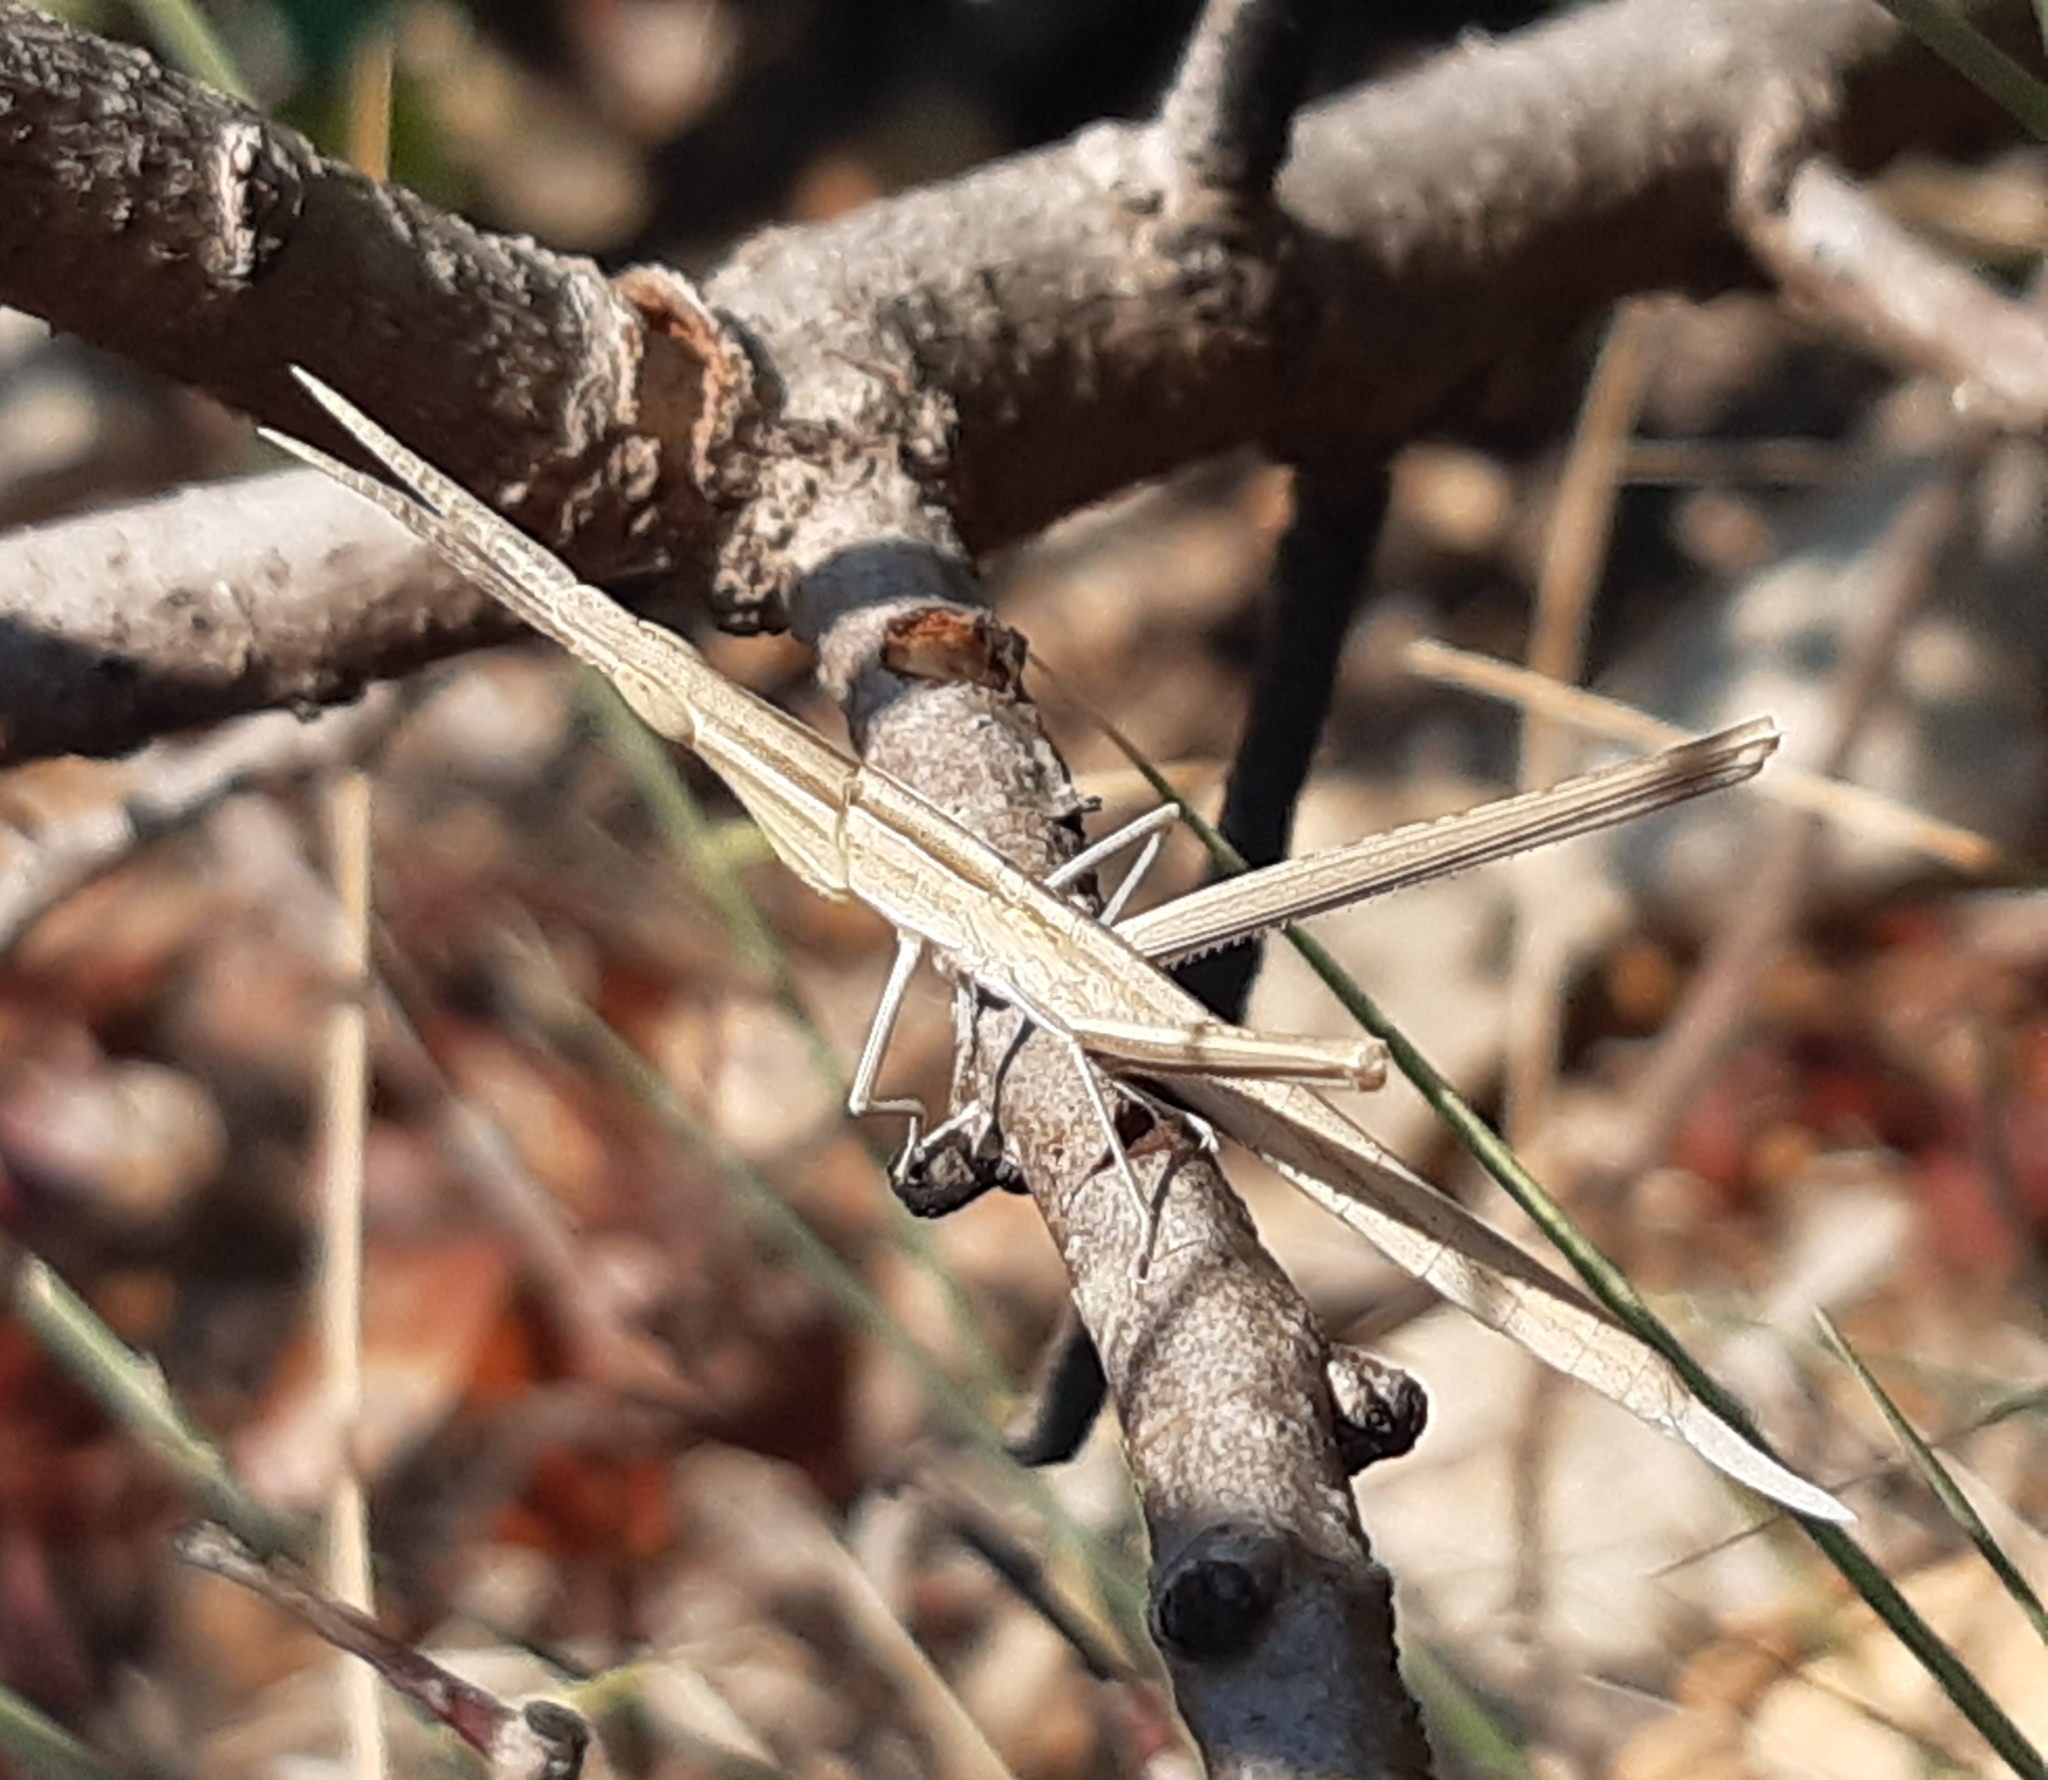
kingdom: Animalia
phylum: Arthropoda
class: Insecta
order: Orthoptera
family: Acrididae
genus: Acrida
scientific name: Acrida ungarica
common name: Common cone-headed grasshopper
